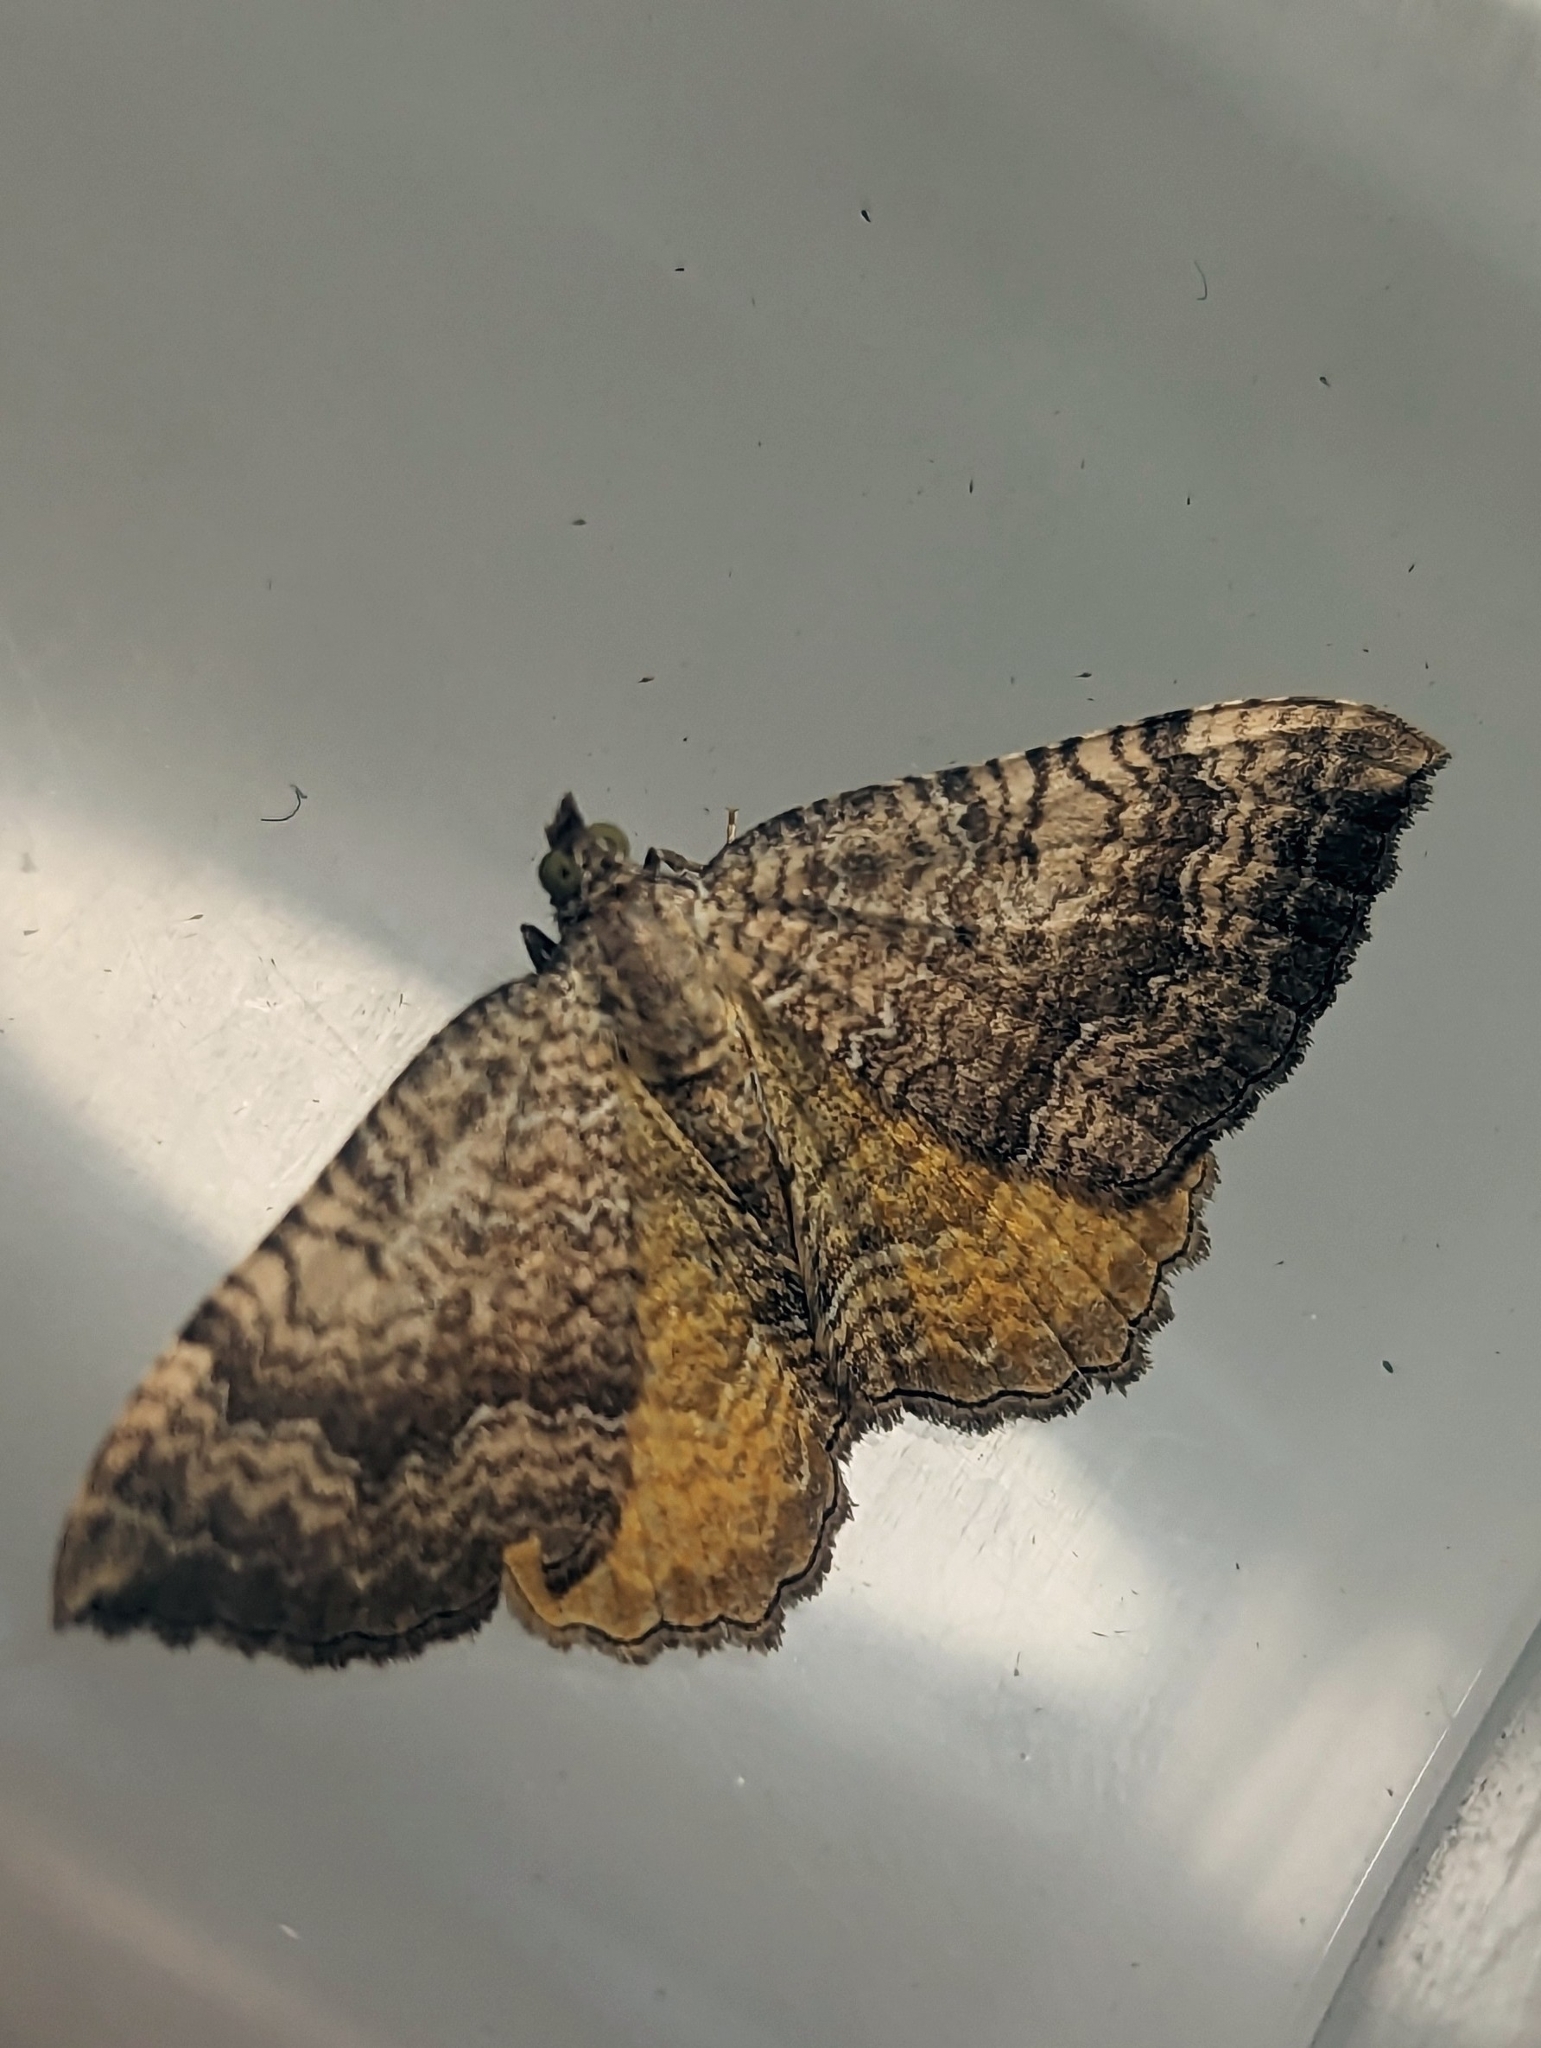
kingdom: Animalia
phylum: Arthropoda
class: Insecta
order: Lepidoptera
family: Geometridae
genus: Camptogramma
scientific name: Camptogramma bilineata
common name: Yellow shell
